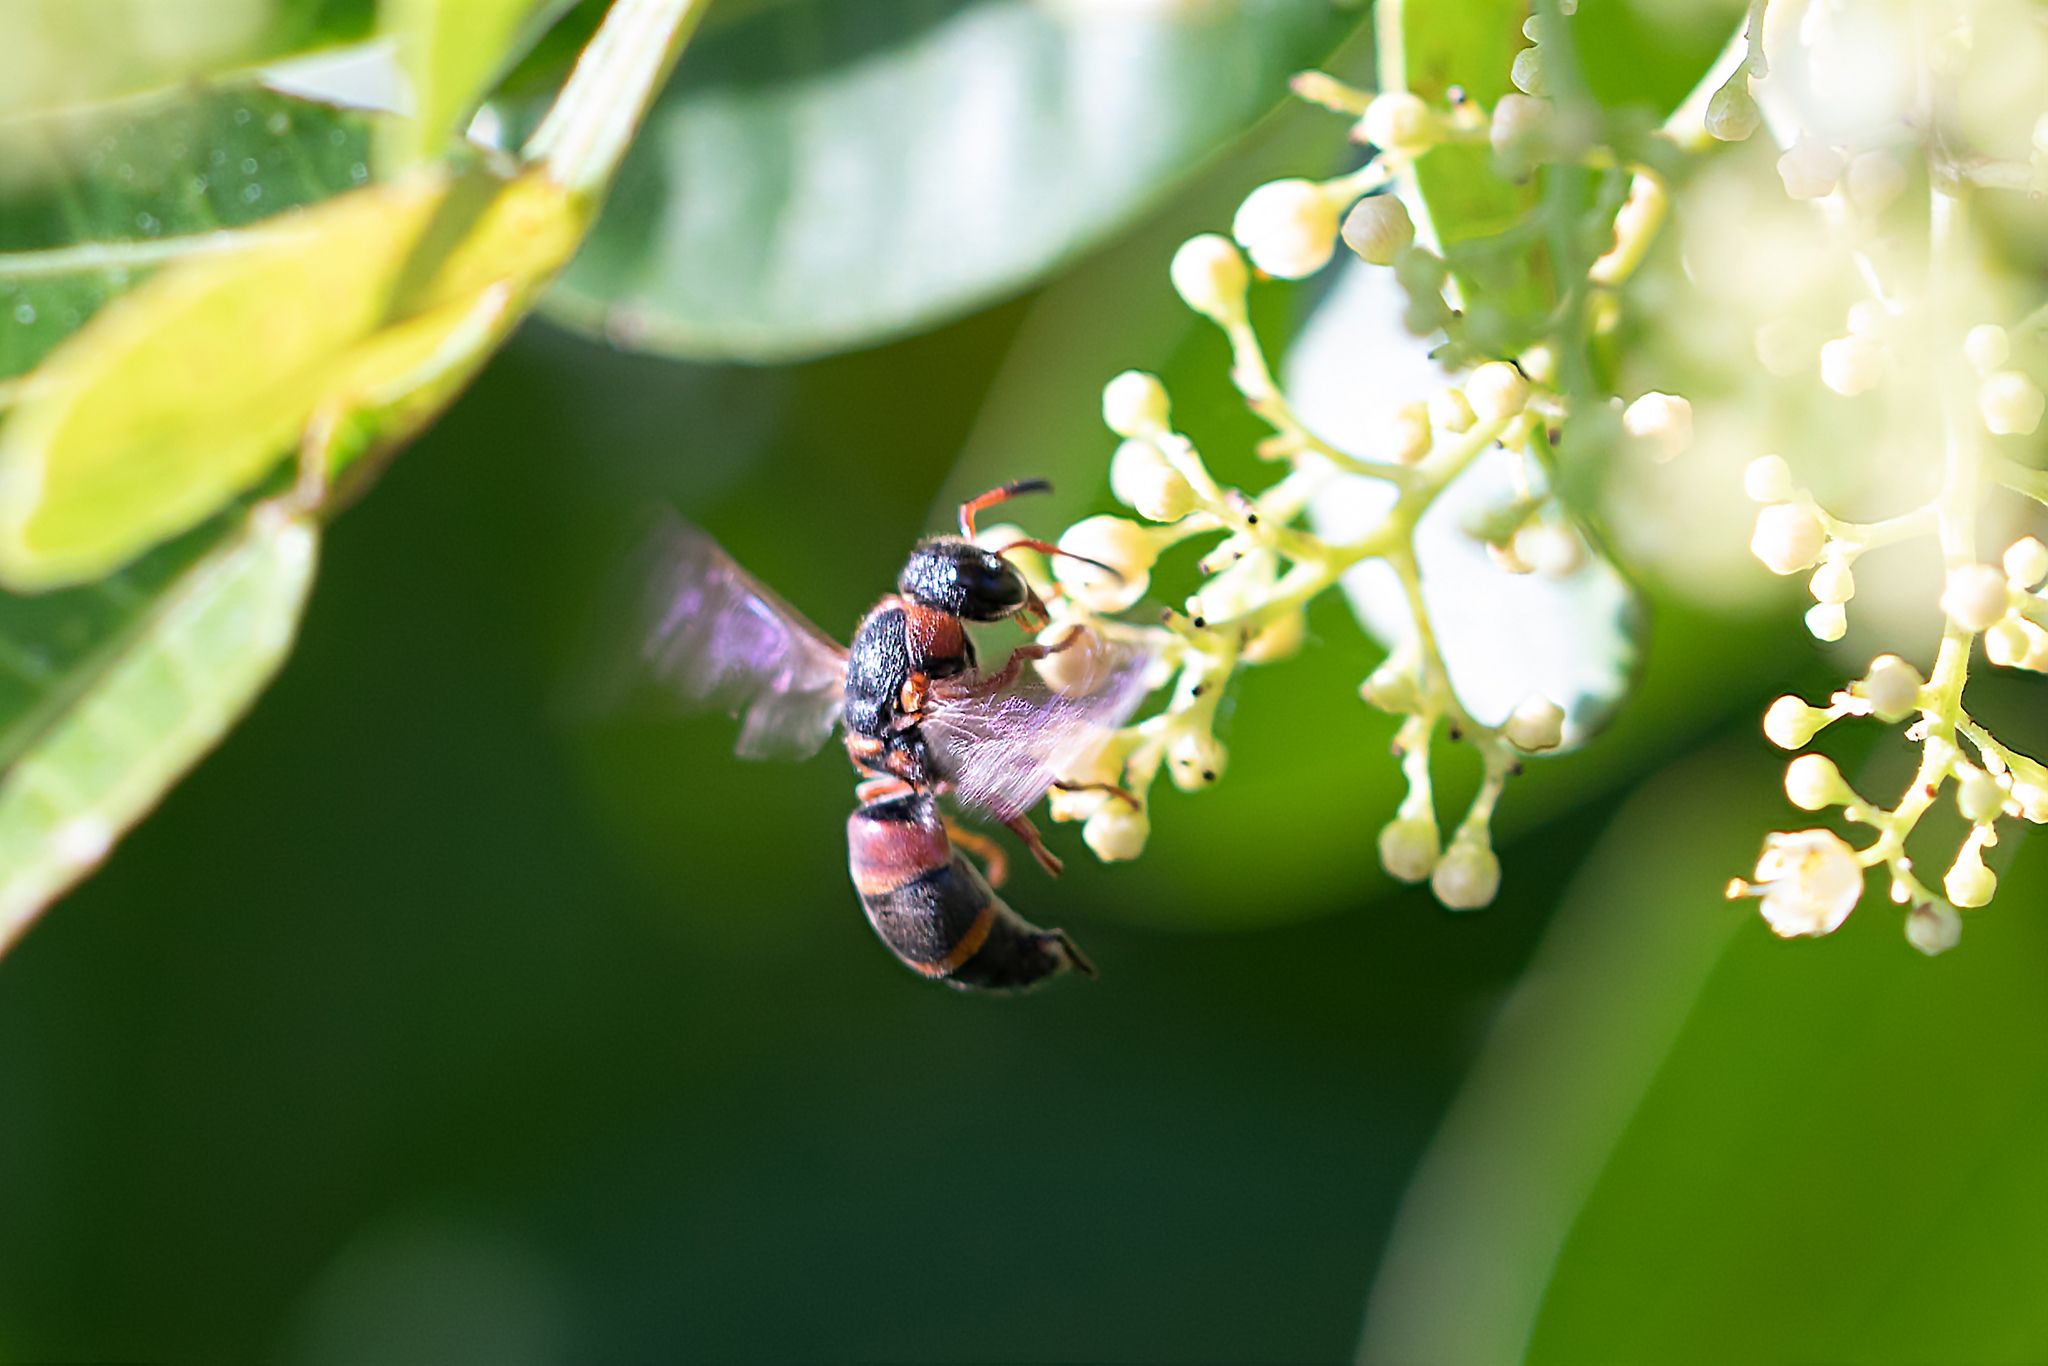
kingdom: Animalia
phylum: Arthropoda
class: Insecta
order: Hymenoptera
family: Eumenidae
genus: Pachodynerus
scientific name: Pachodynerus erynnis
